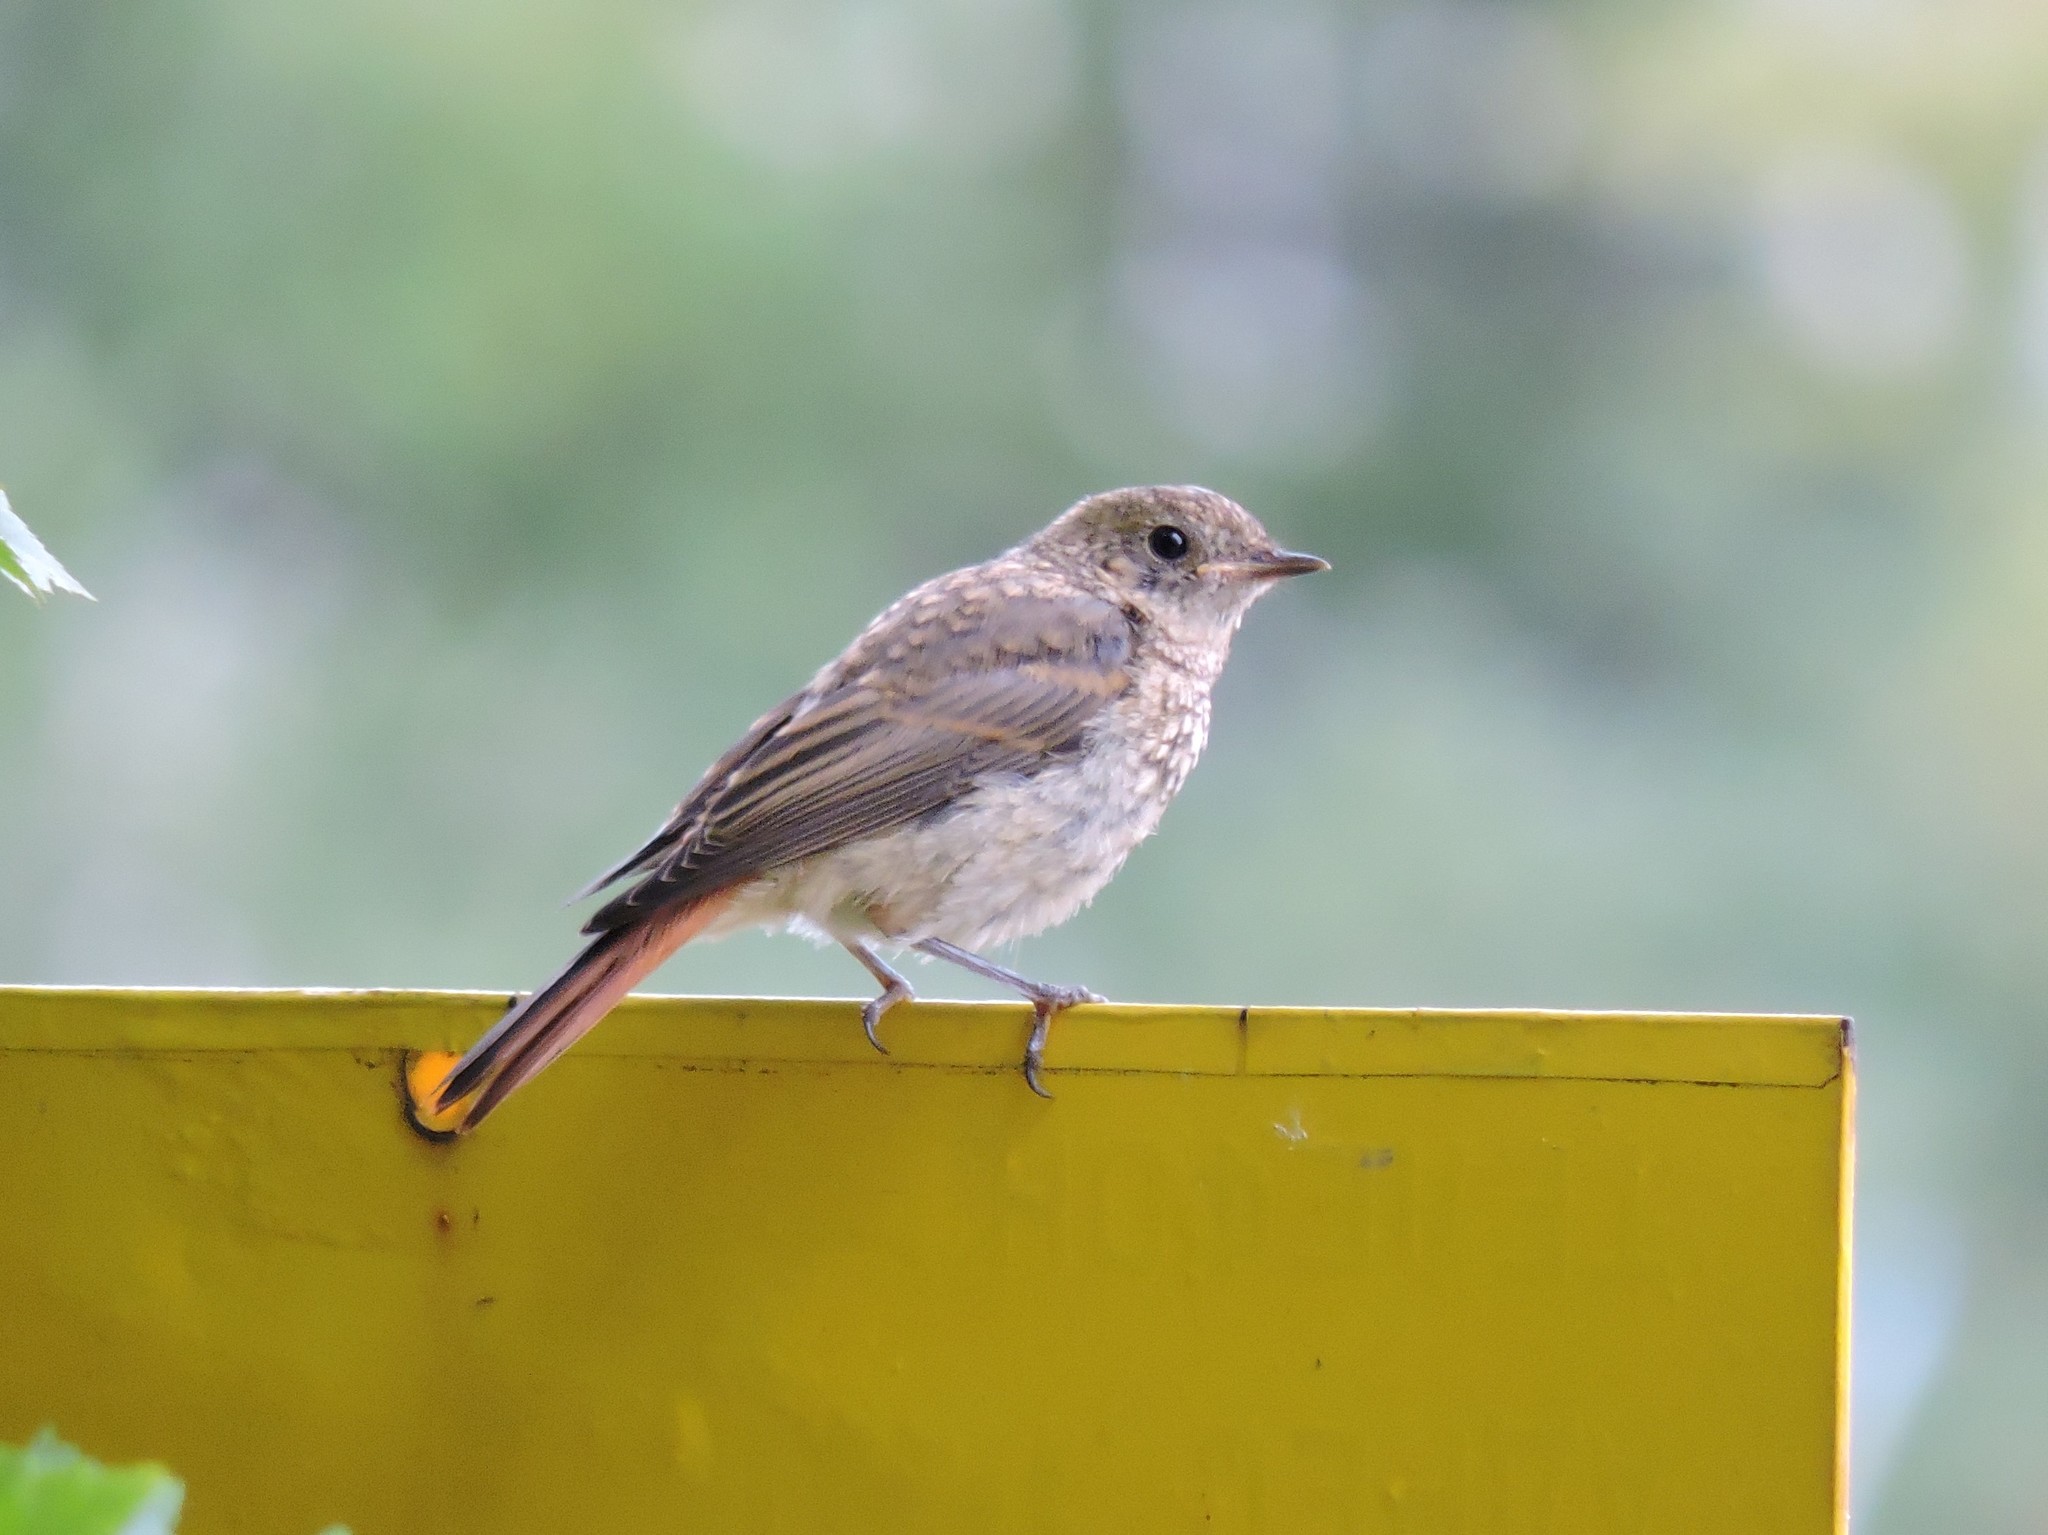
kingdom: Animalia
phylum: Chordata
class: Aves
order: Passeriformes
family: Muscicapidae
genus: Phoenicurus
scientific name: Phoenicurus phoenicurus
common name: Common redstart
